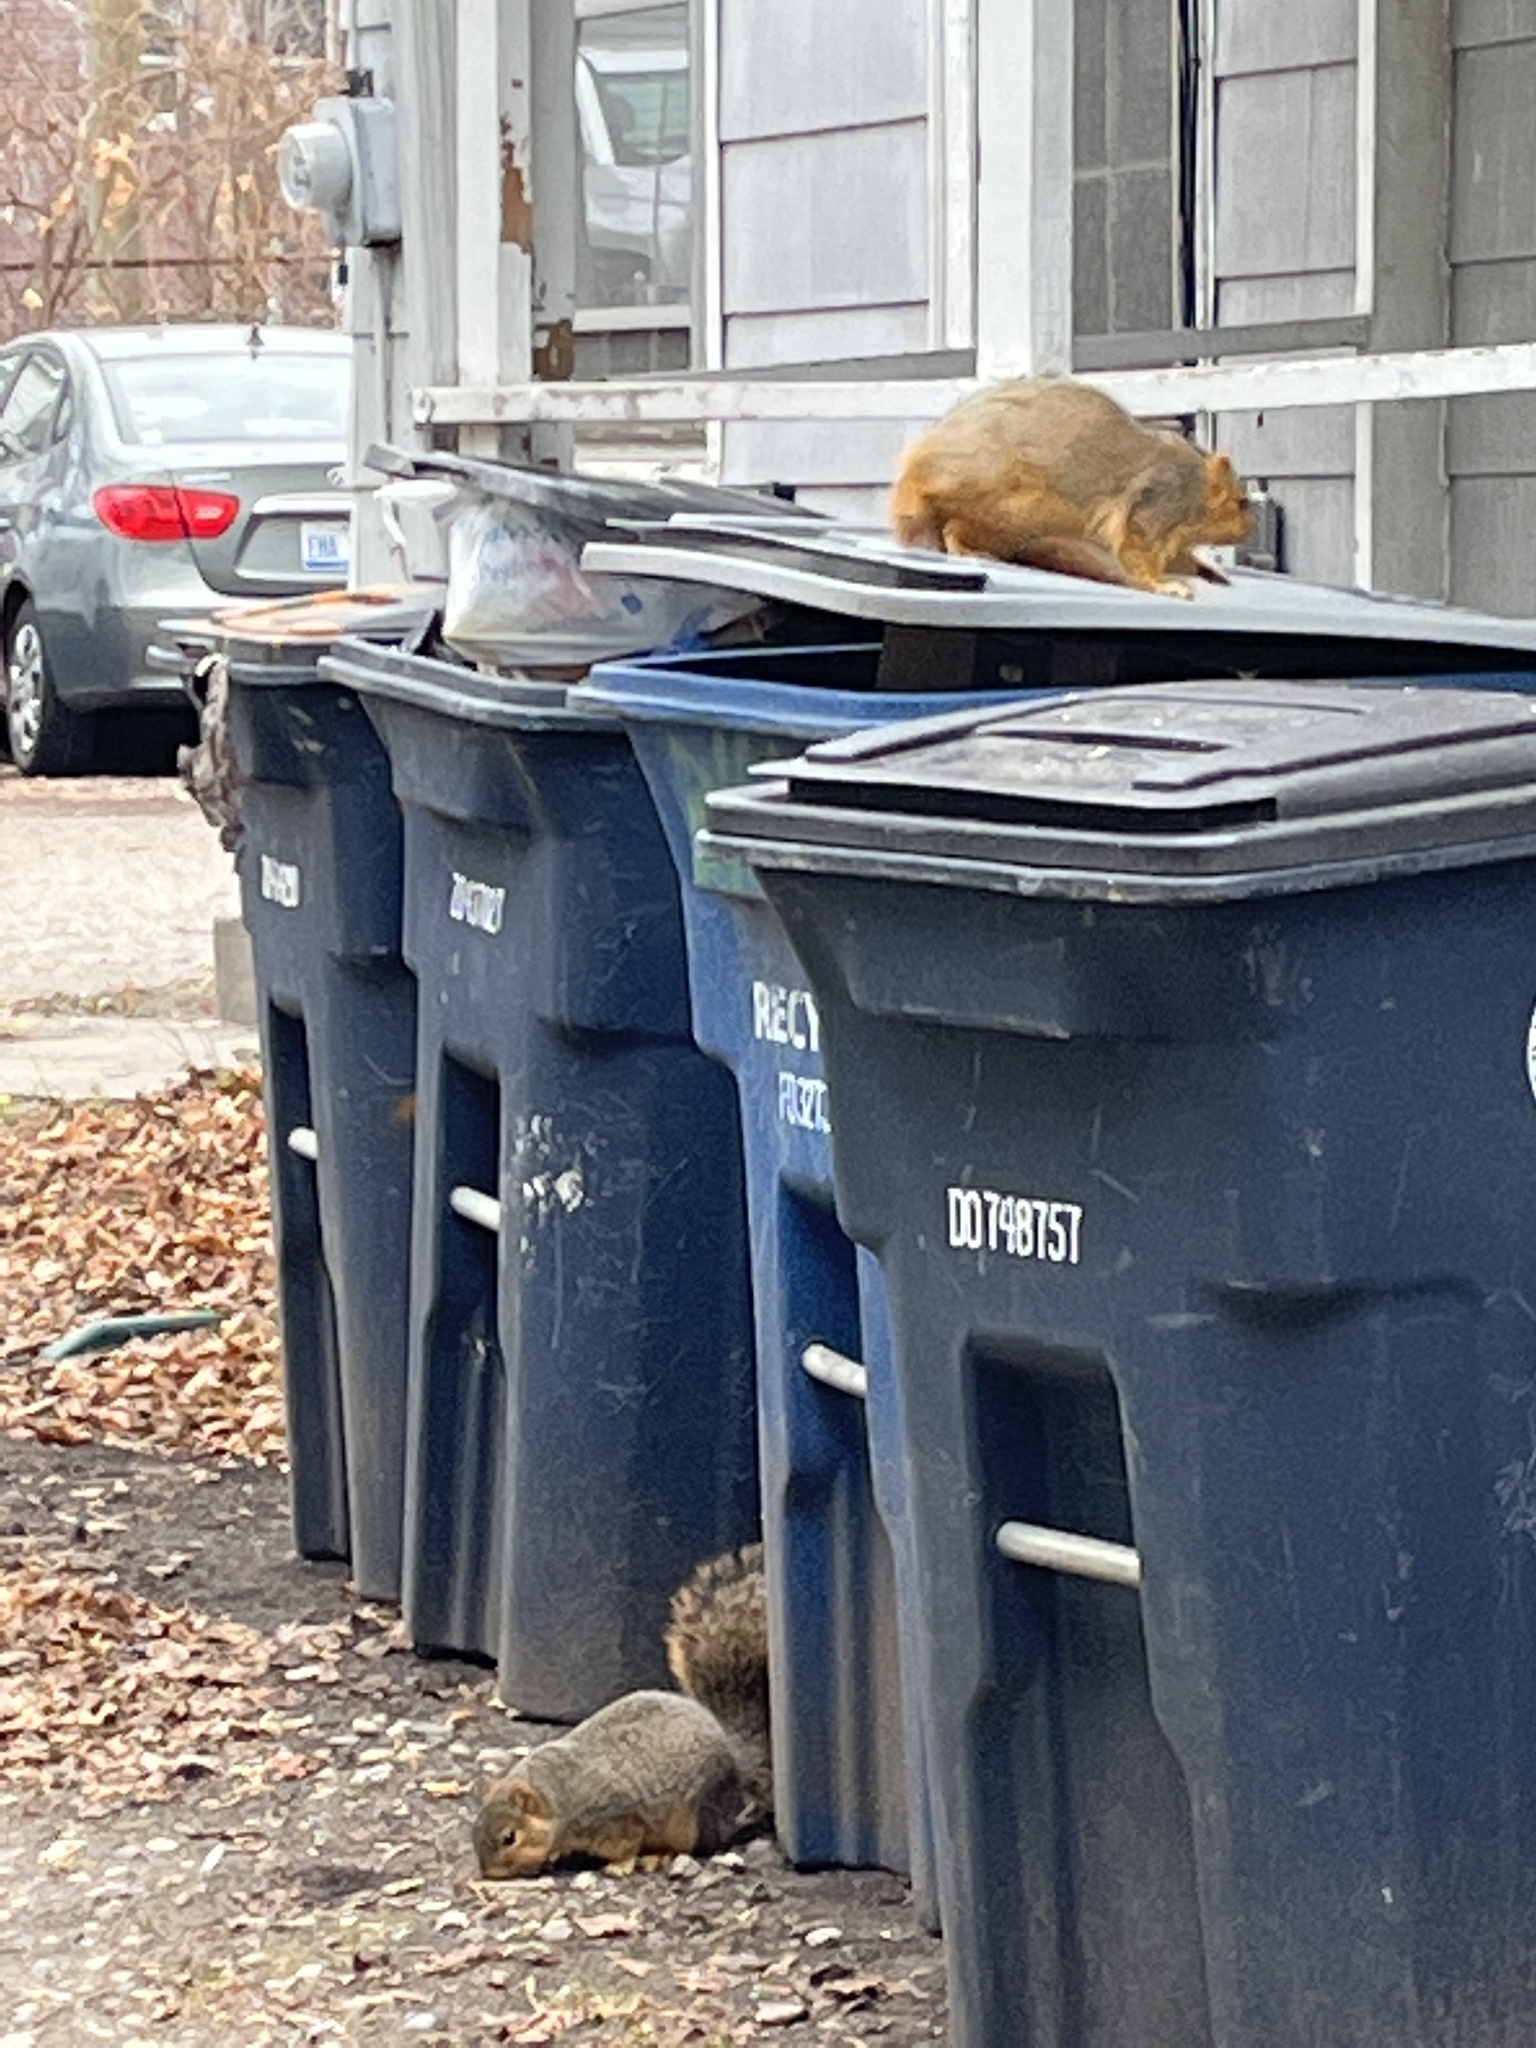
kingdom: Animalia
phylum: Chordata
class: Mammalia
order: Rodentia
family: Sciuridae
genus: Sciurus
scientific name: Sciurus niger
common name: Fox squirrel
